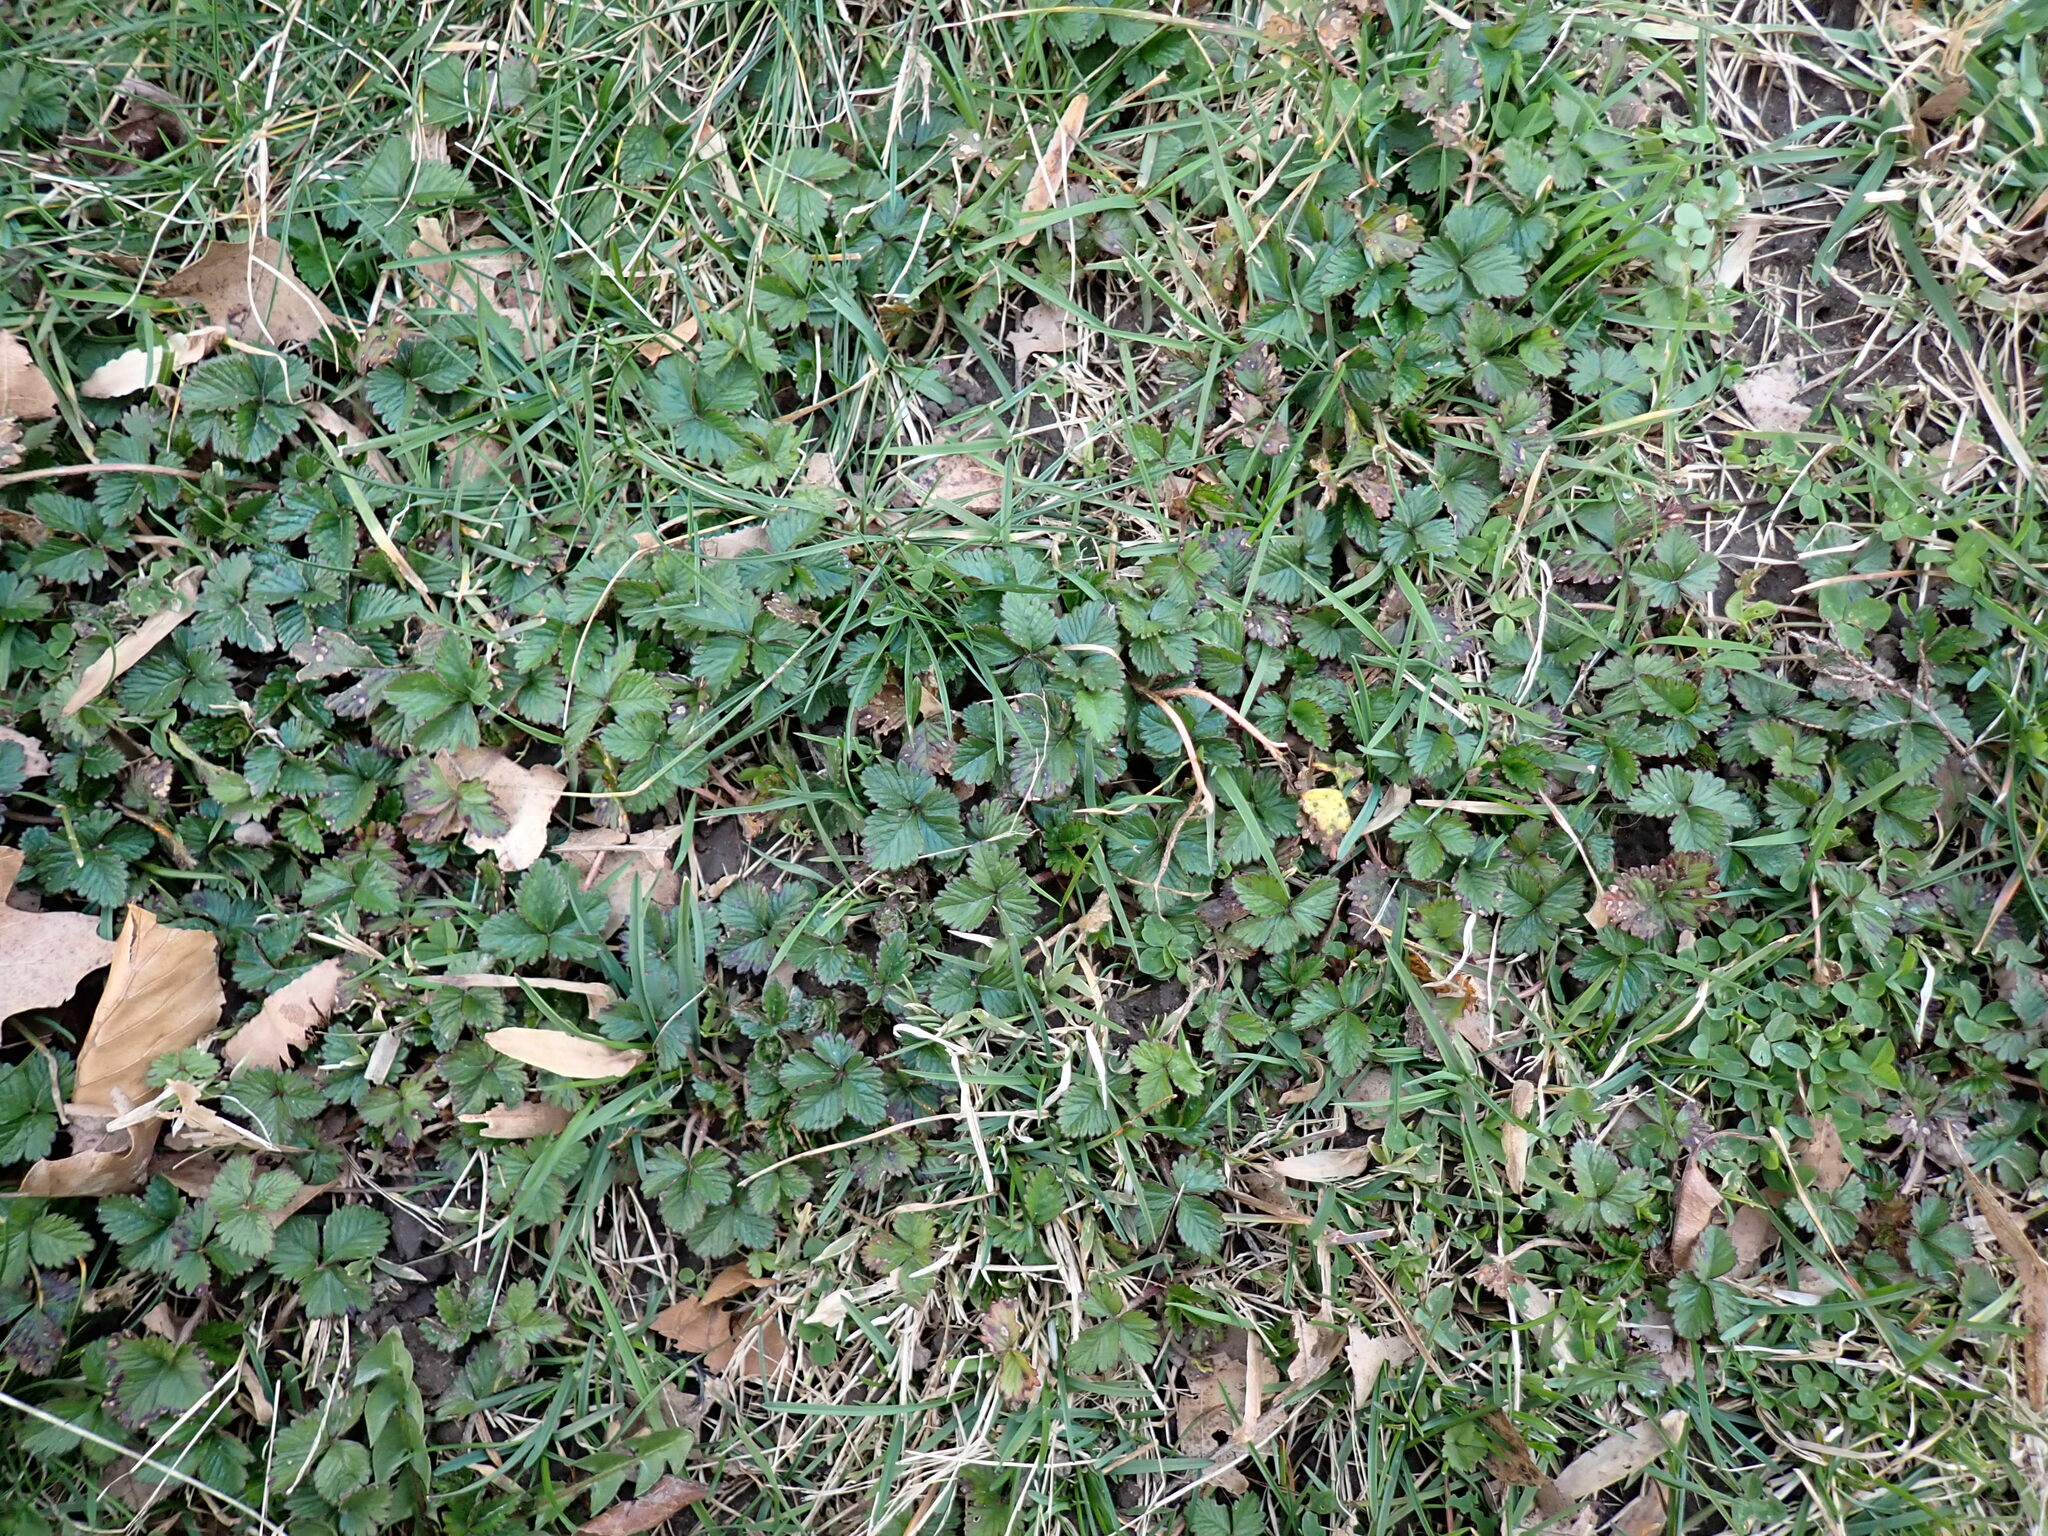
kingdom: Plantae
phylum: Tracheophyta
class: Magnoliopsida
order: Rosales
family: Rosaceae
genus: Potentilla
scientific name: Potentilla indica
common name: Yellow-flowered strawberry
